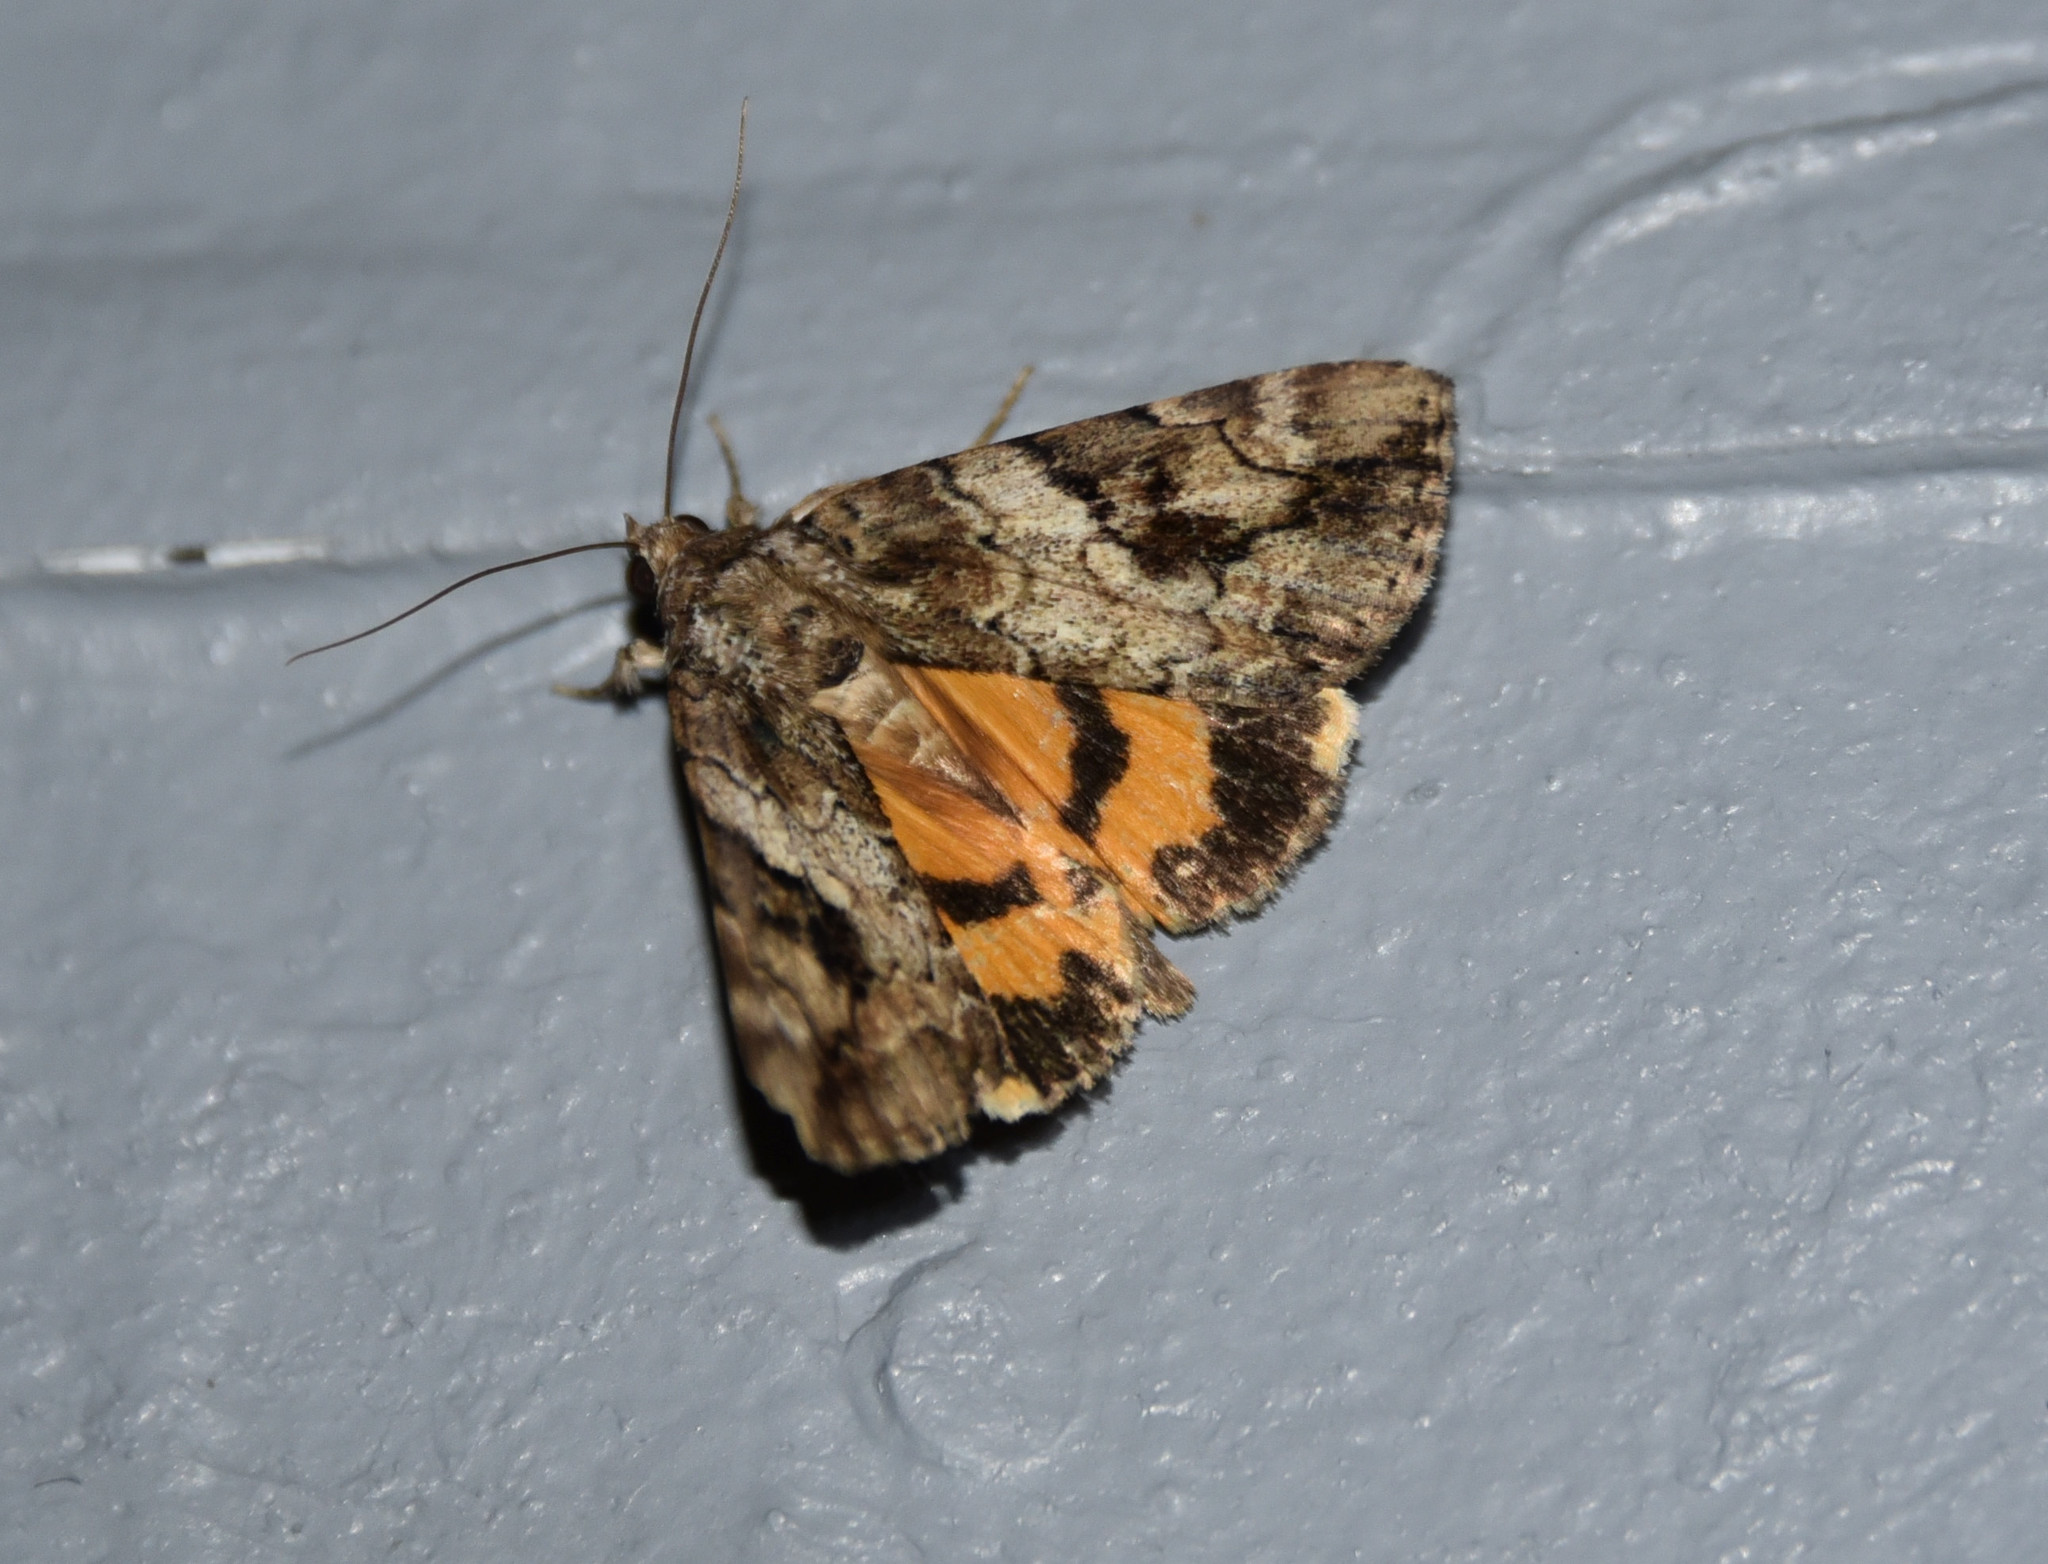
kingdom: Animalia
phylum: Arthropoda
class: Insecta
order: Lepidoptera
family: Erebidae
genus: Catocala
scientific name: Catocala micronympha
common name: Little nymph underwing
